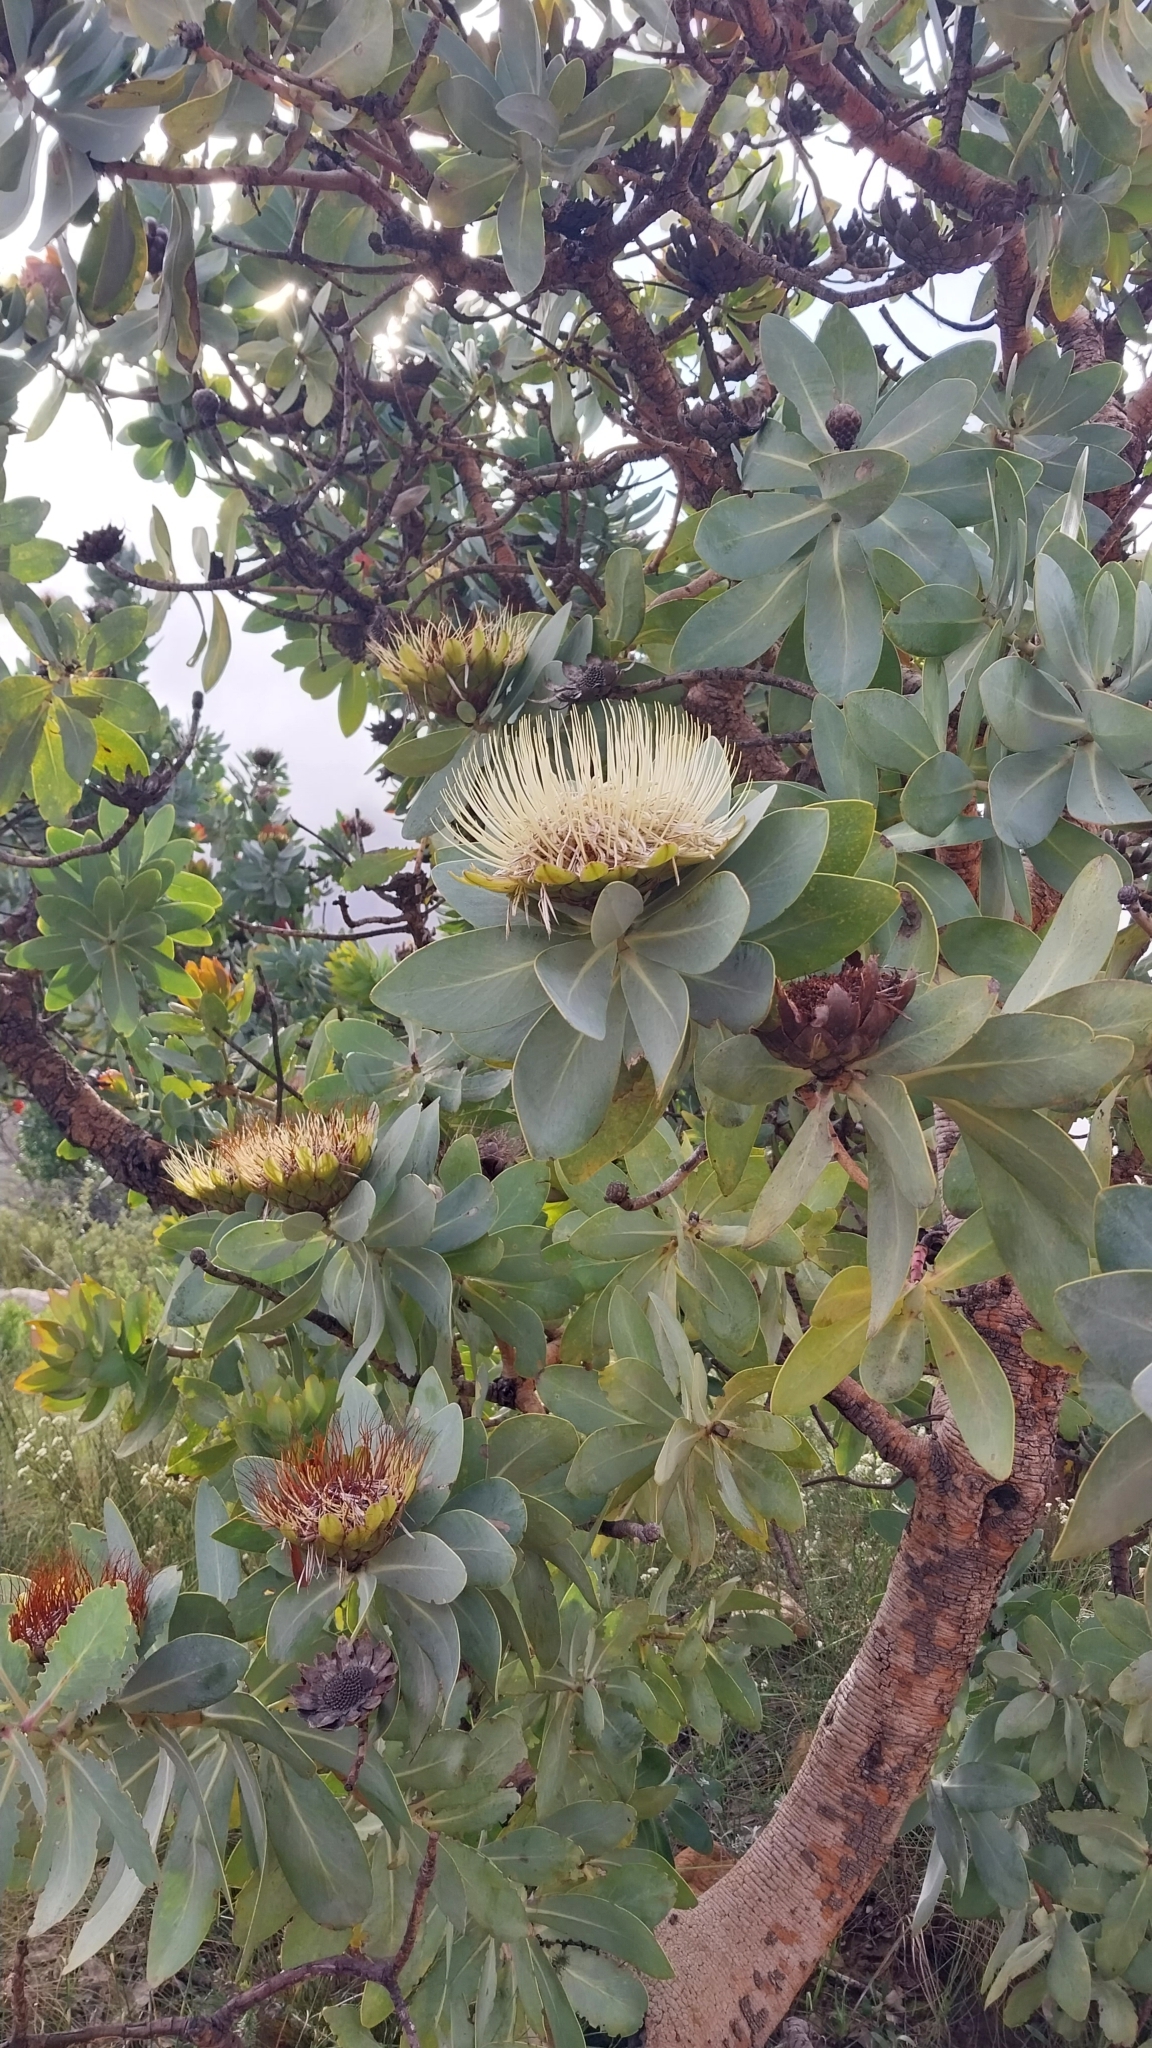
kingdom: Plantae
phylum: Tracheophyta
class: Magnoliopsida
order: Proteales
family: Proteaceae
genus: Protea
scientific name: Protea nitida
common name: Tree protea
